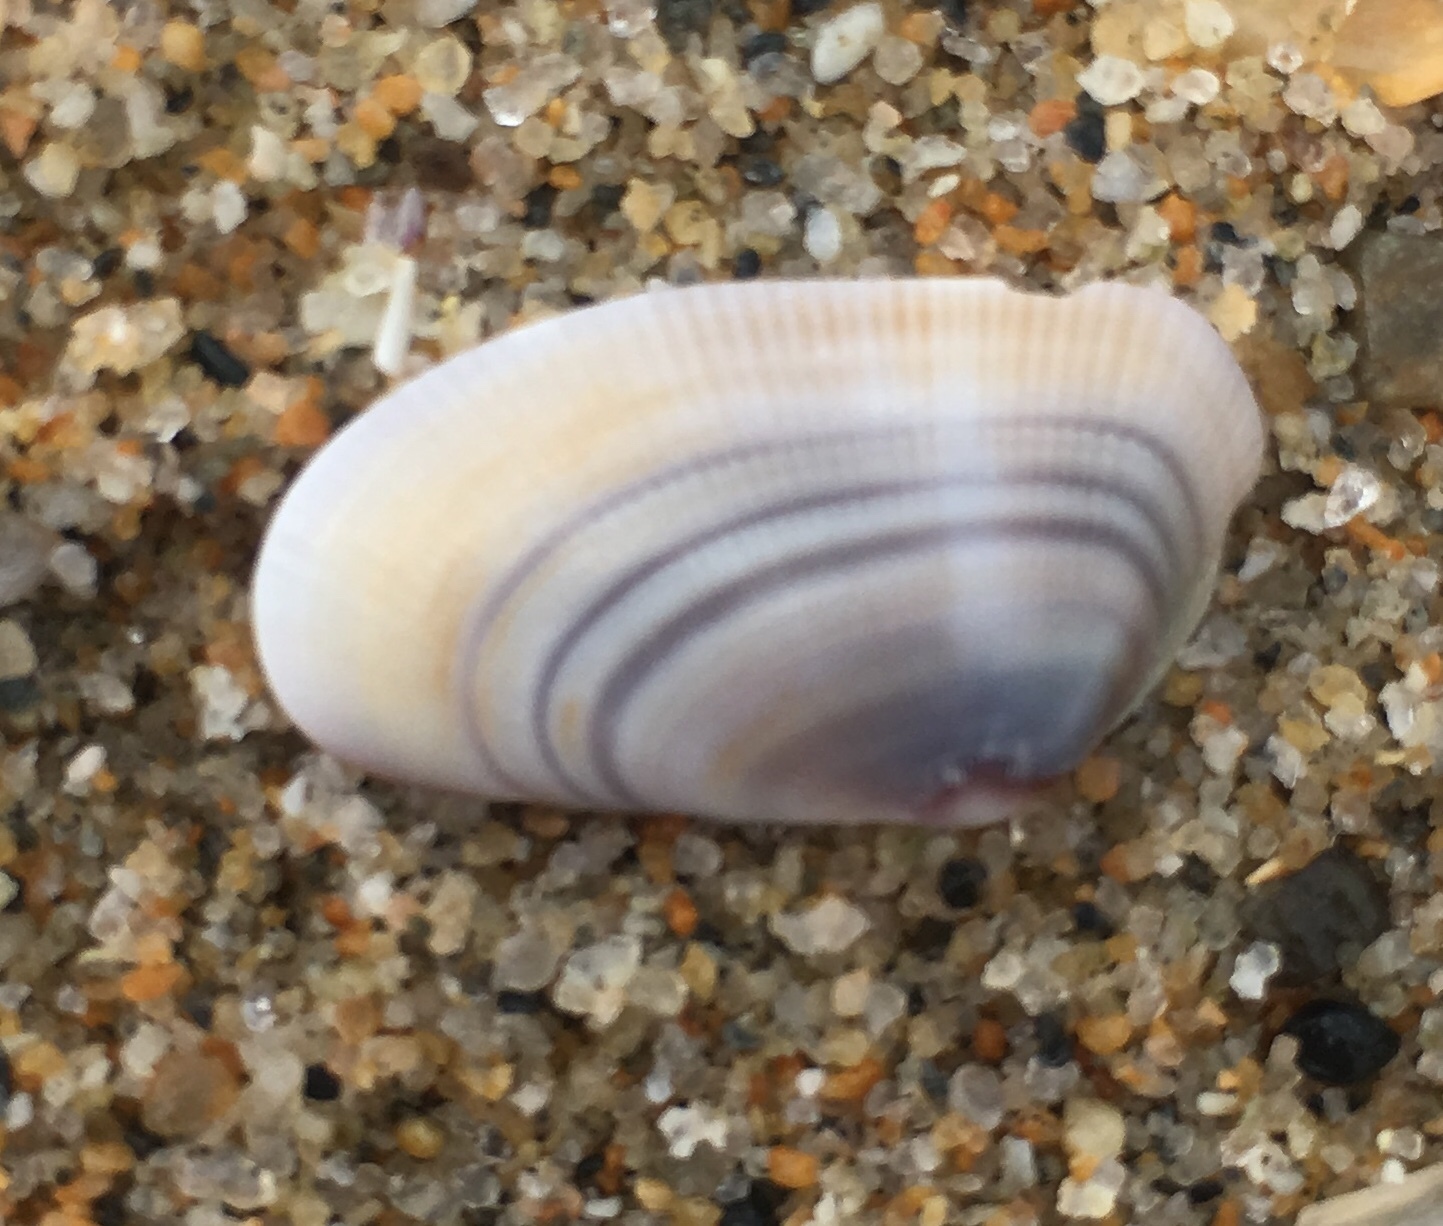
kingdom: Animalia
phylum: Mollusca
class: Bivalvia
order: Cardiida
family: Donacidae
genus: Donax
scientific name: Donax gouldii
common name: Gould beanclam
